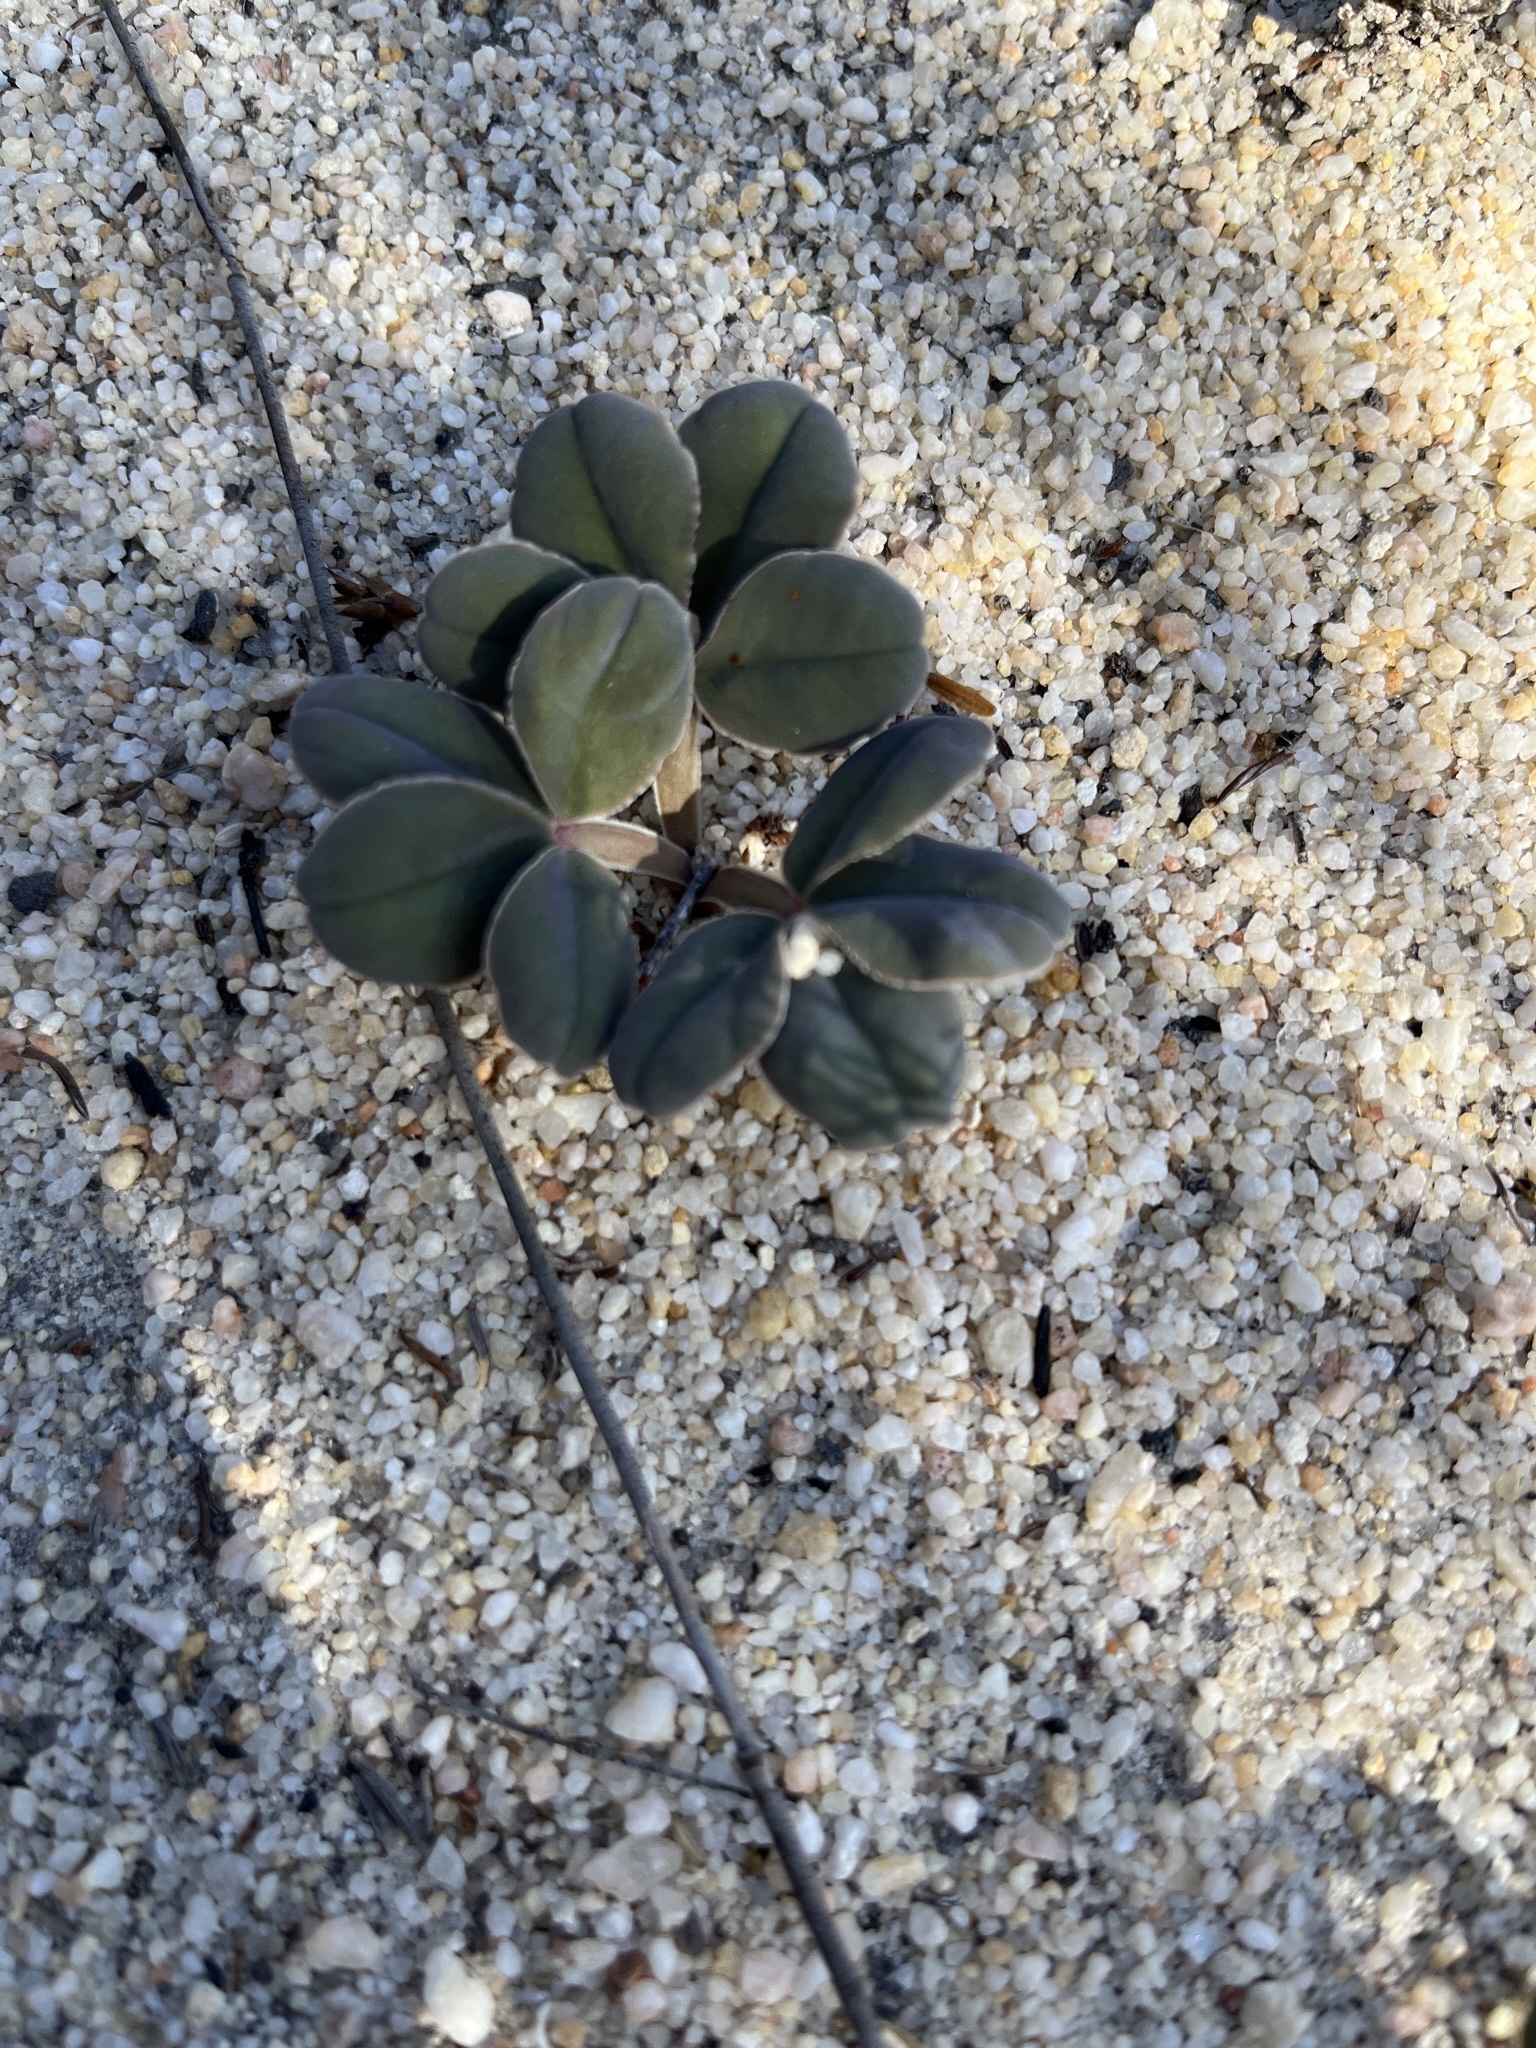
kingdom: Plantae
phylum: Tracheophyta
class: Magnoliopsida
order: Oxalidales
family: Oxalidaceae
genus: Oxalis
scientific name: Oxalis flava
